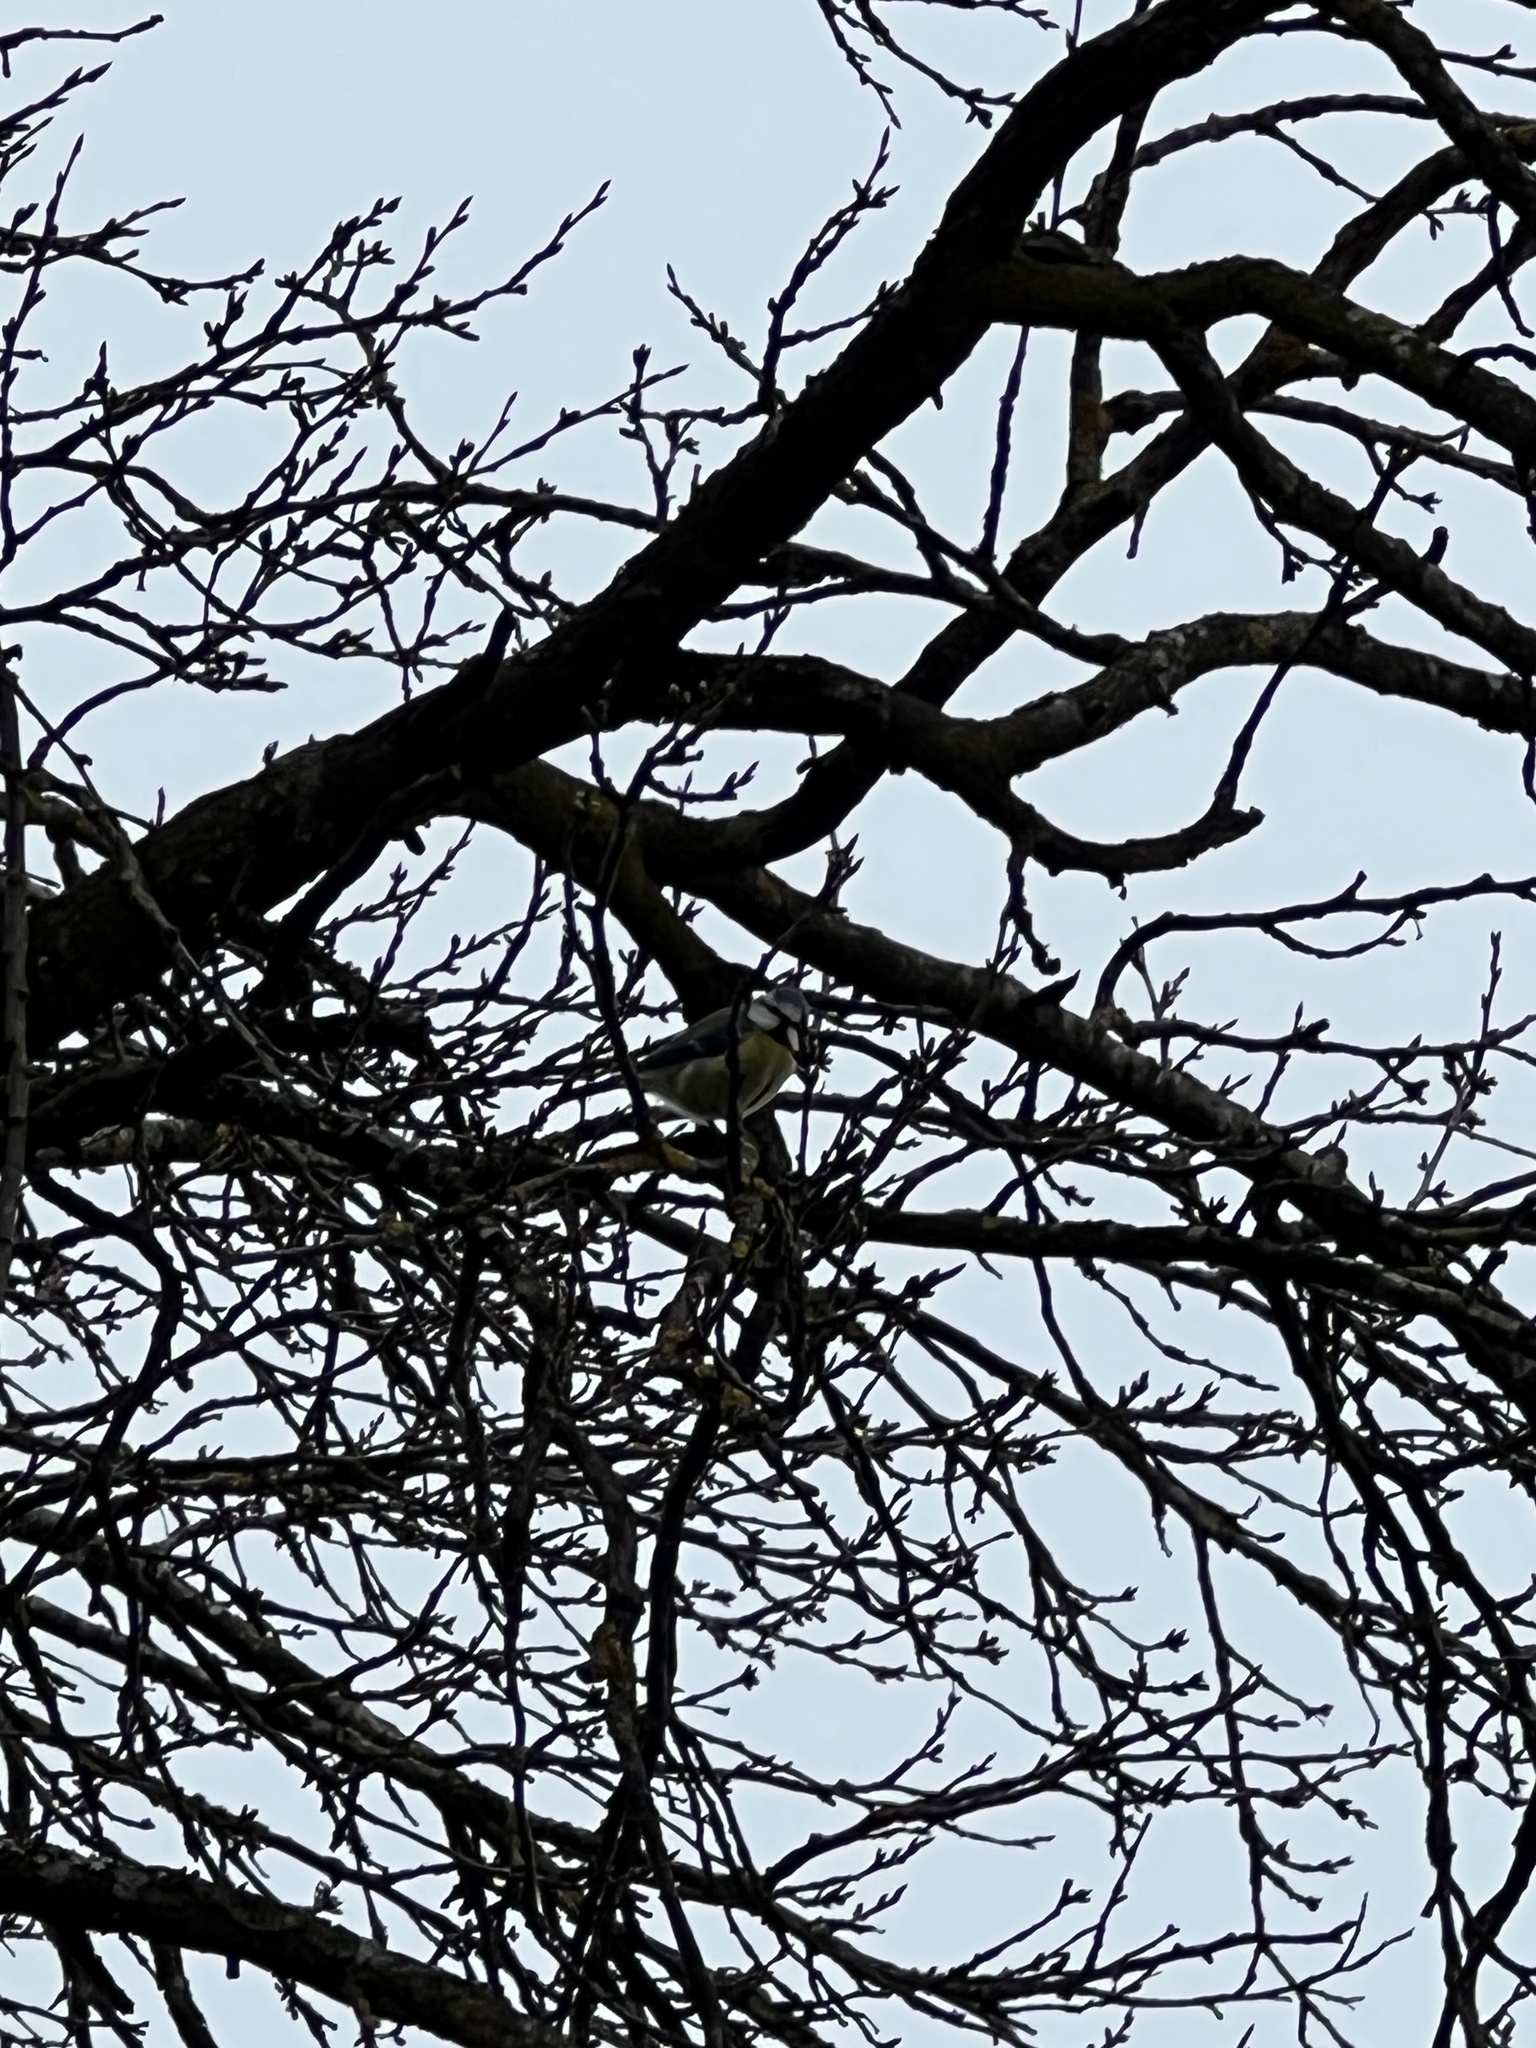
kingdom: Animalia
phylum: Chordata
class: Aves
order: Passeriformes
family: Paridae
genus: Cyanistes
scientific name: Cyanistes caeruleus
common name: Eurasian blue tit
